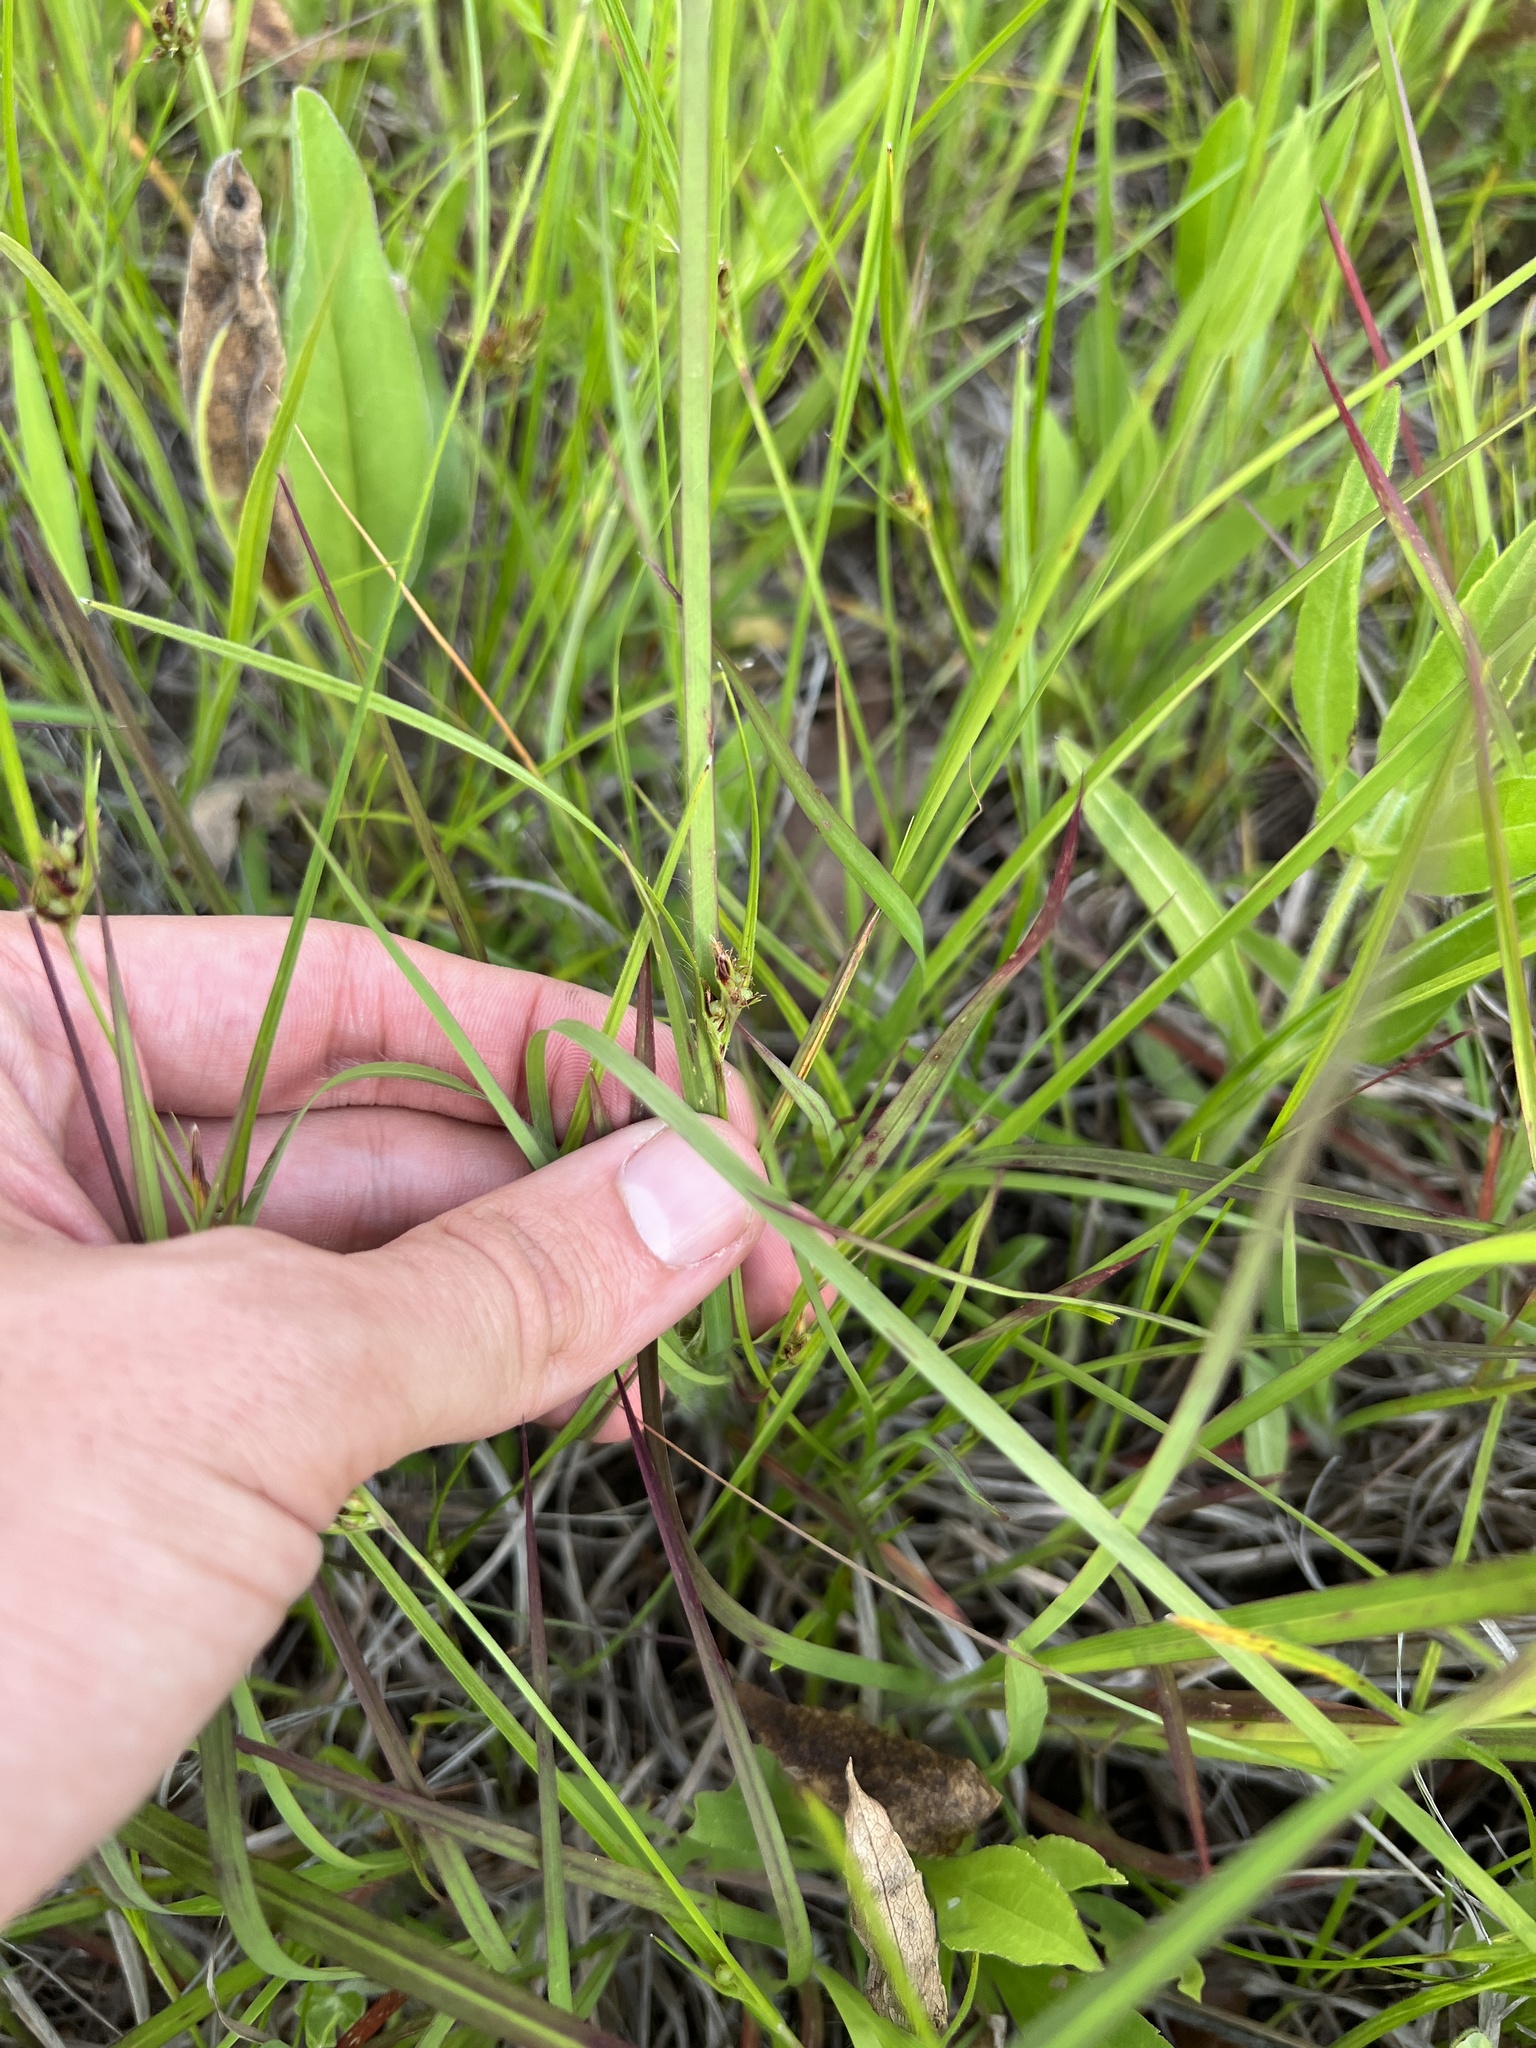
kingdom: Plantae
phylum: Tracheophyta
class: Liliopsida
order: Poales
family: Cyperaceae
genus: Scleria
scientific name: Scleria ciliata
